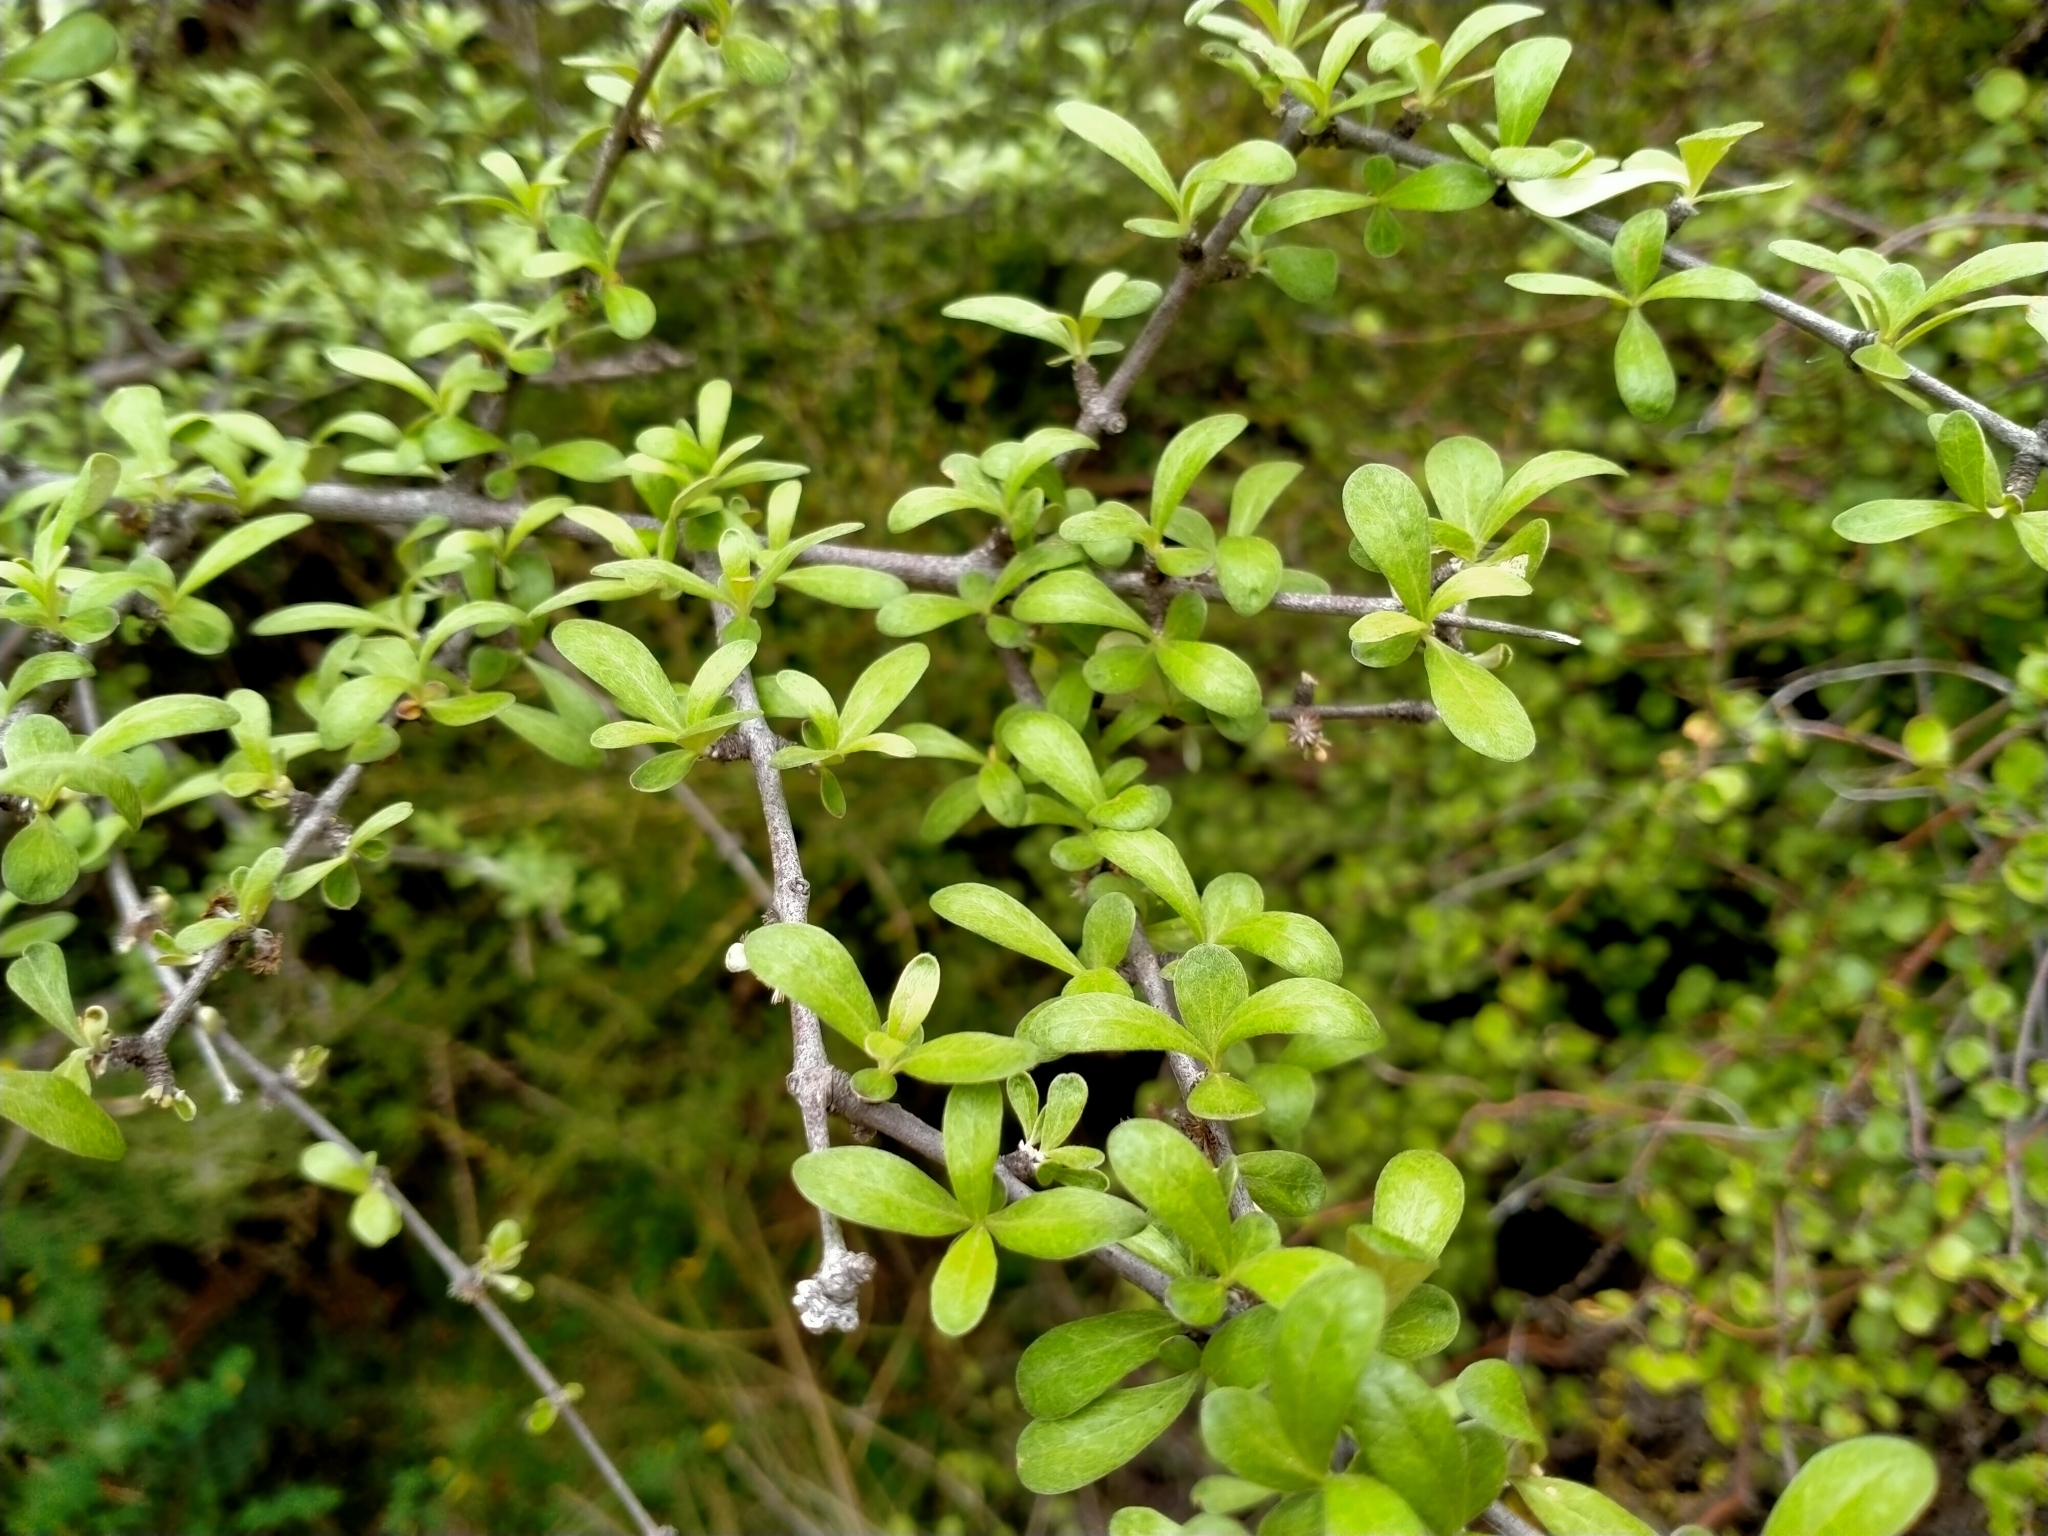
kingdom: Plantae
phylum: Tracheophyta
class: Magnoliopsida
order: Asterales
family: Asteraceae
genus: Olearia
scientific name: Olearia odorata
